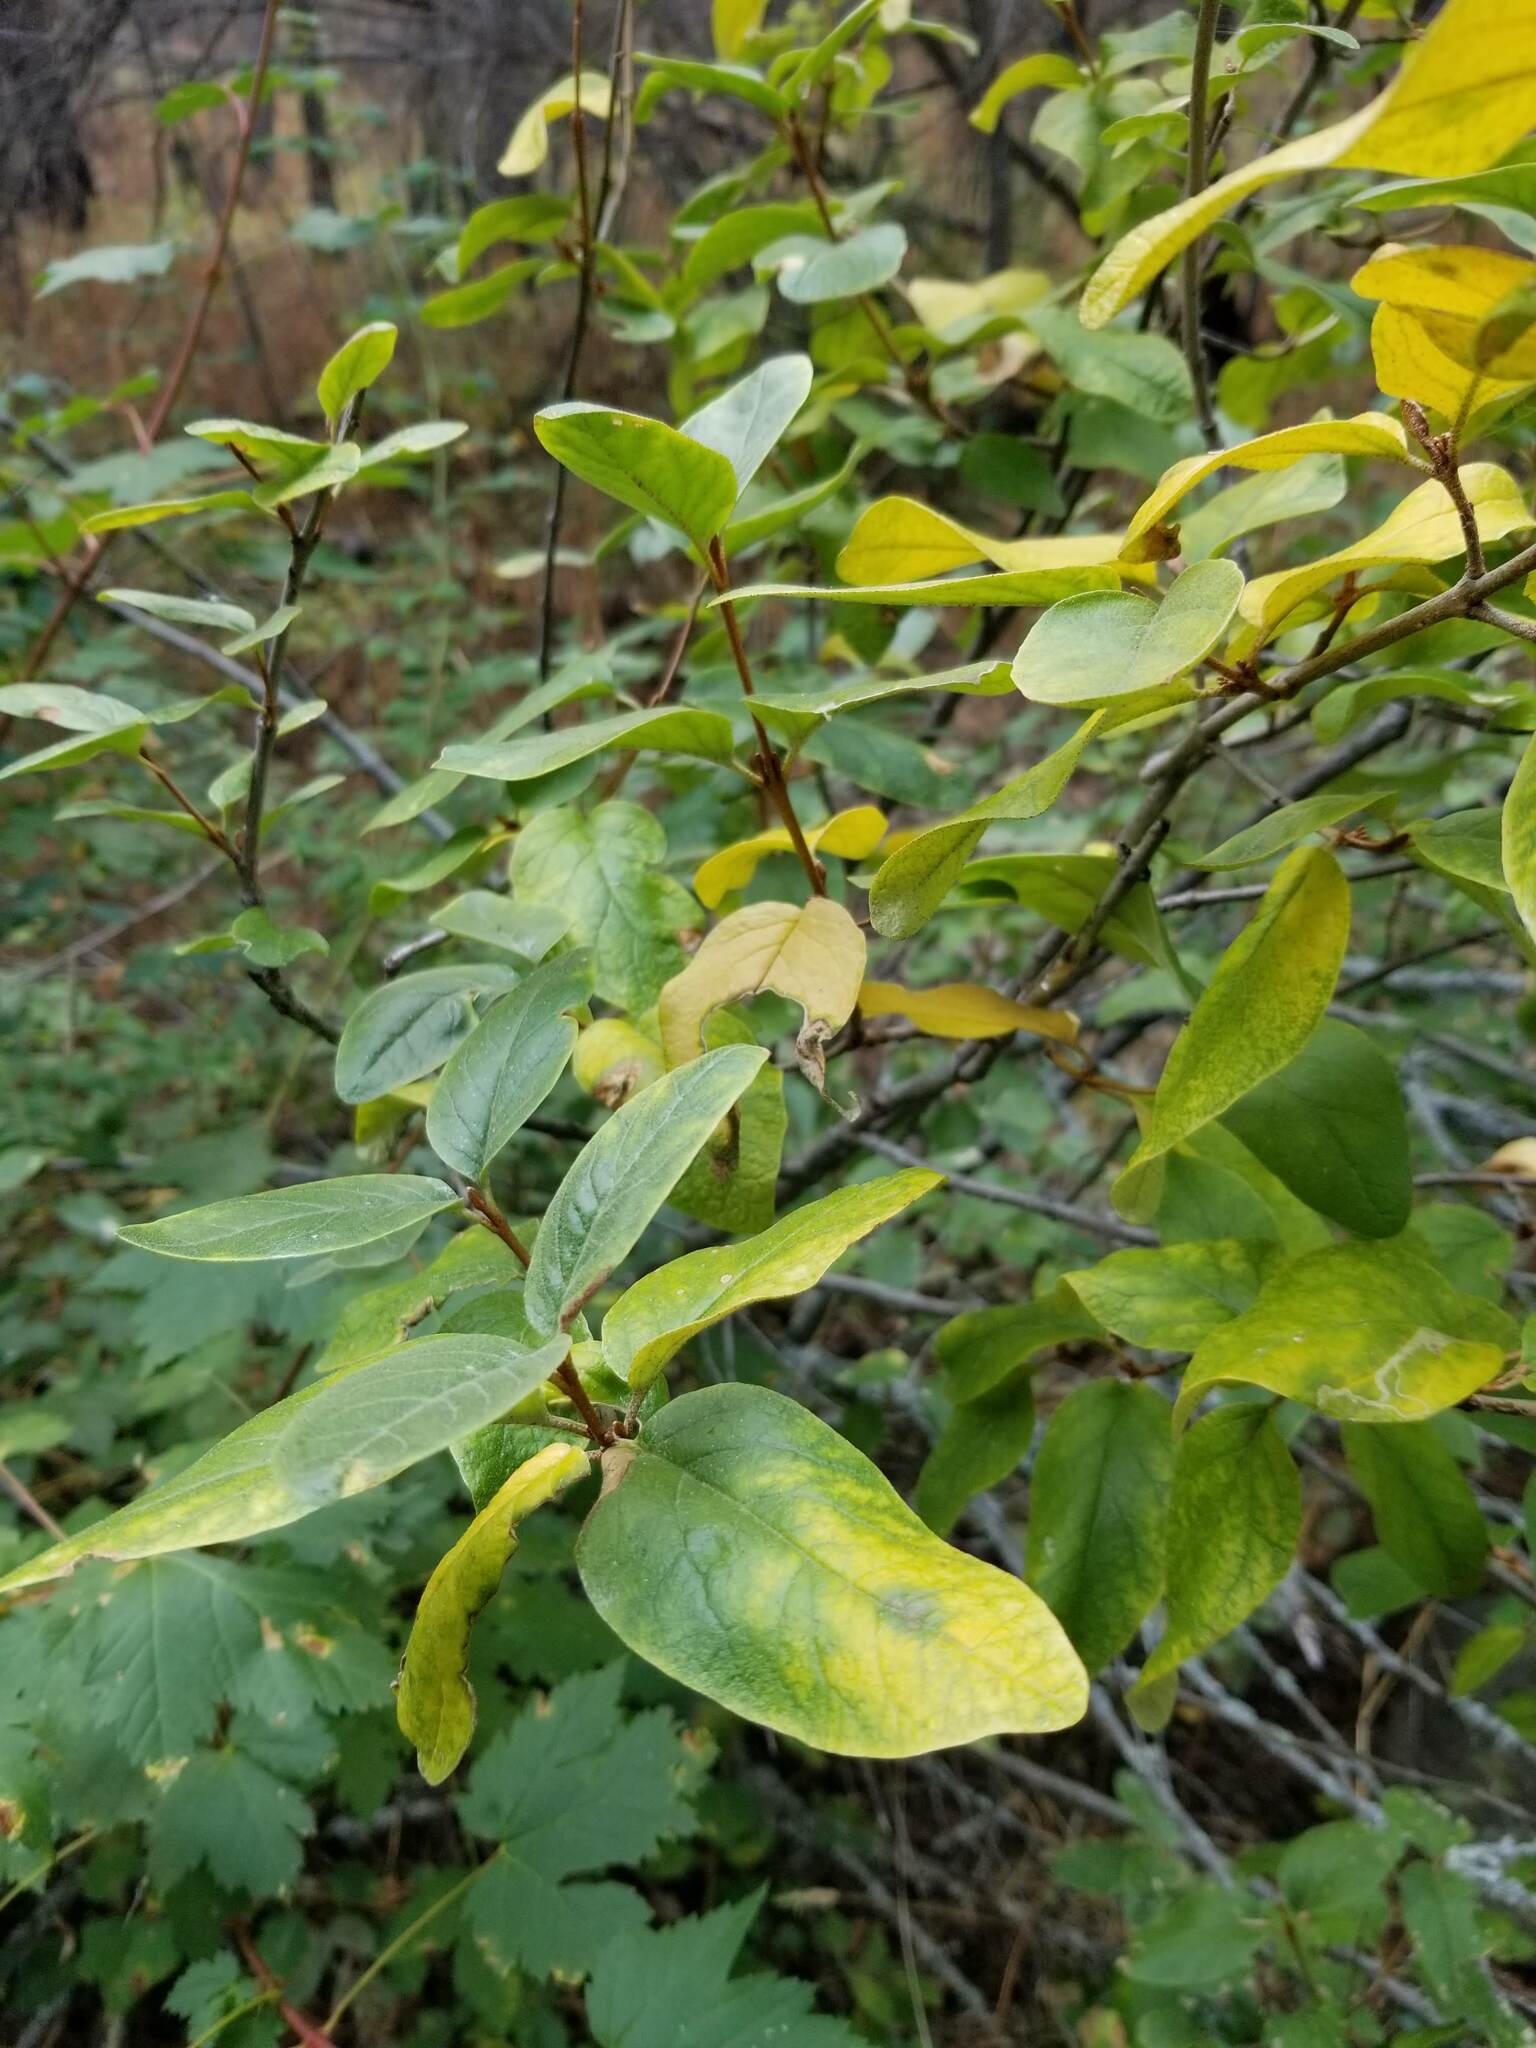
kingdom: Plantae
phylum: Tracheophyta
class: Magnoliopsida
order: Rosales
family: Elaeagnaceae
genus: Shepherdia
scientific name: Shepherdia canadensis
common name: Soapberry
